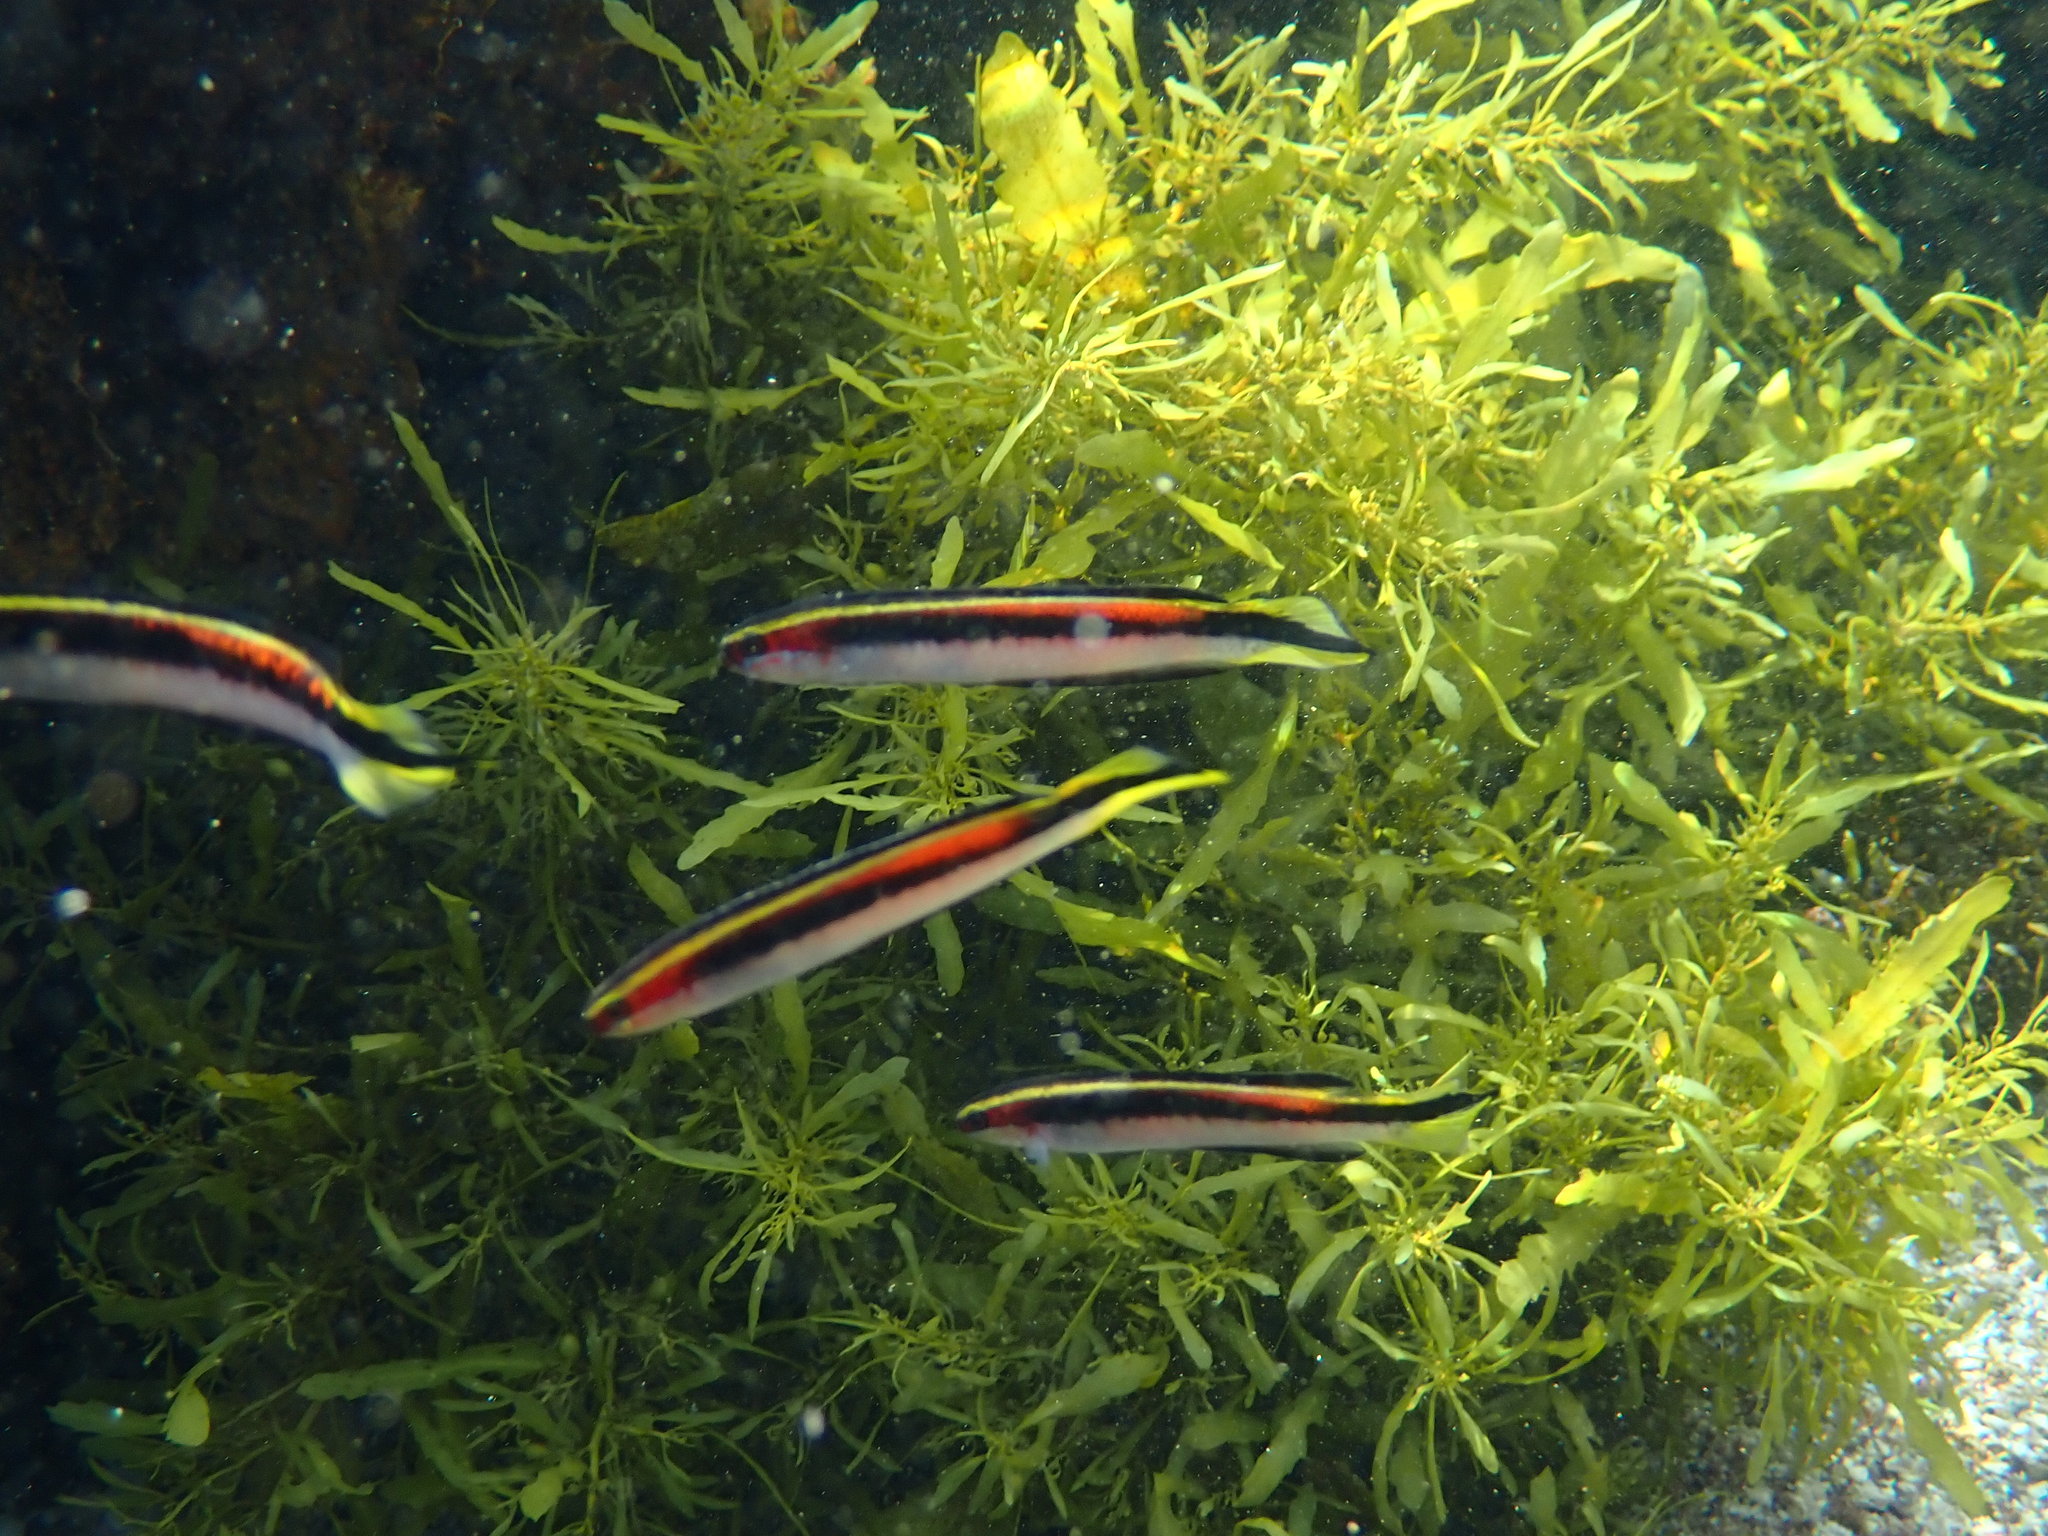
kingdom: Animalia
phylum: Chordata
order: Perciformes
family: Plesiopidae
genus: Trachinops
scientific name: Trachinops taeniatus
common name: Eastern hulafish
